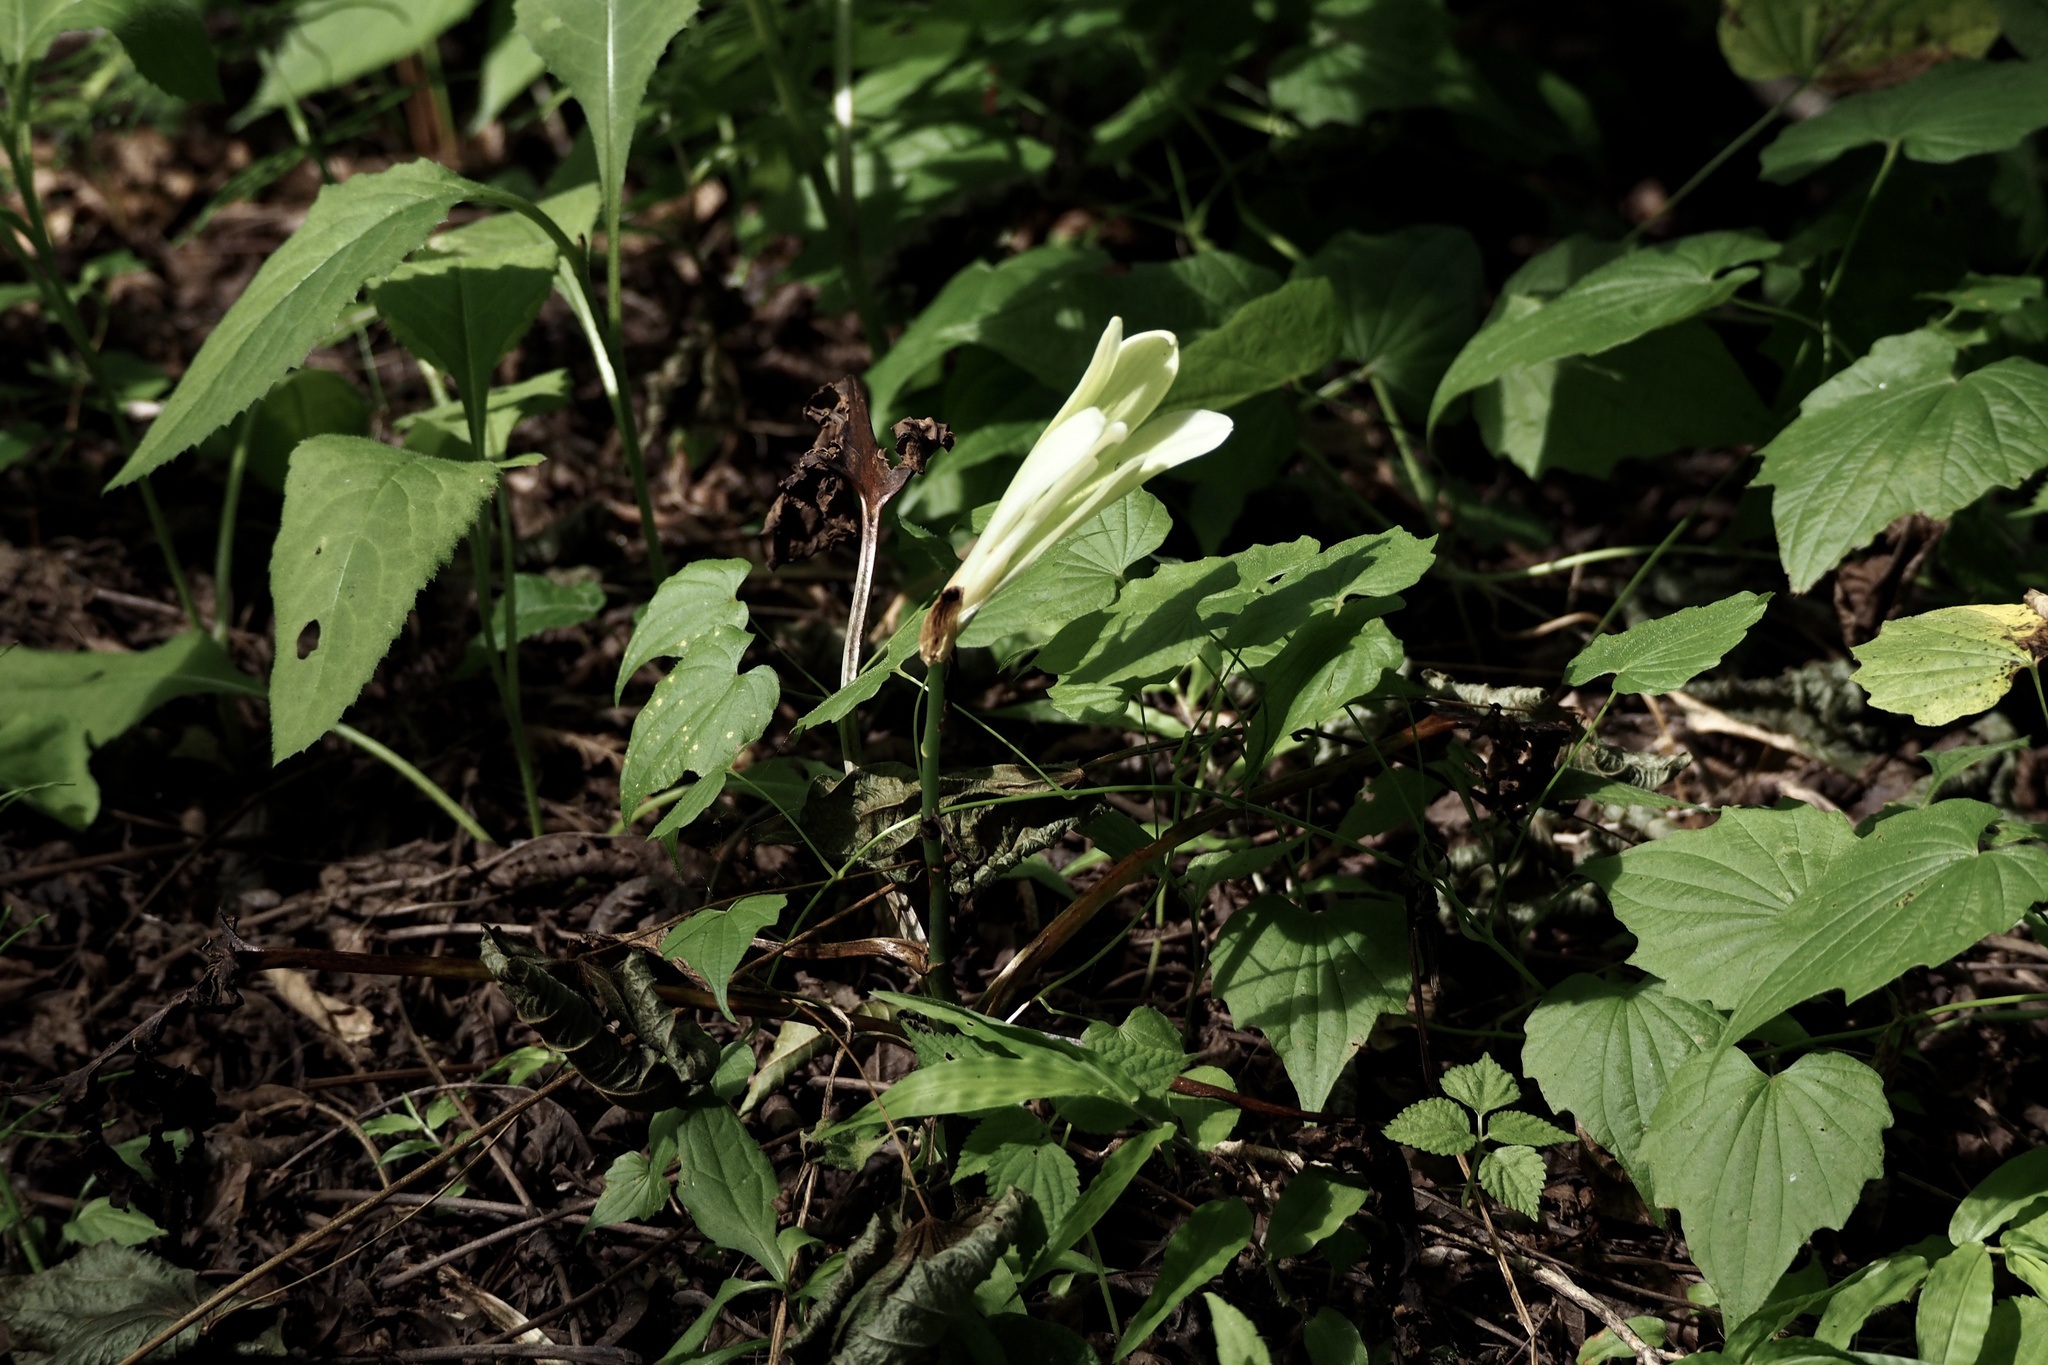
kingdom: Plantae
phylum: Tracheophyta
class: Liliopsida
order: Liliales
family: Liliaceae
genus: Cardiocrinum
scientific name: Cardiocrinum cordatum
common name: Lily
